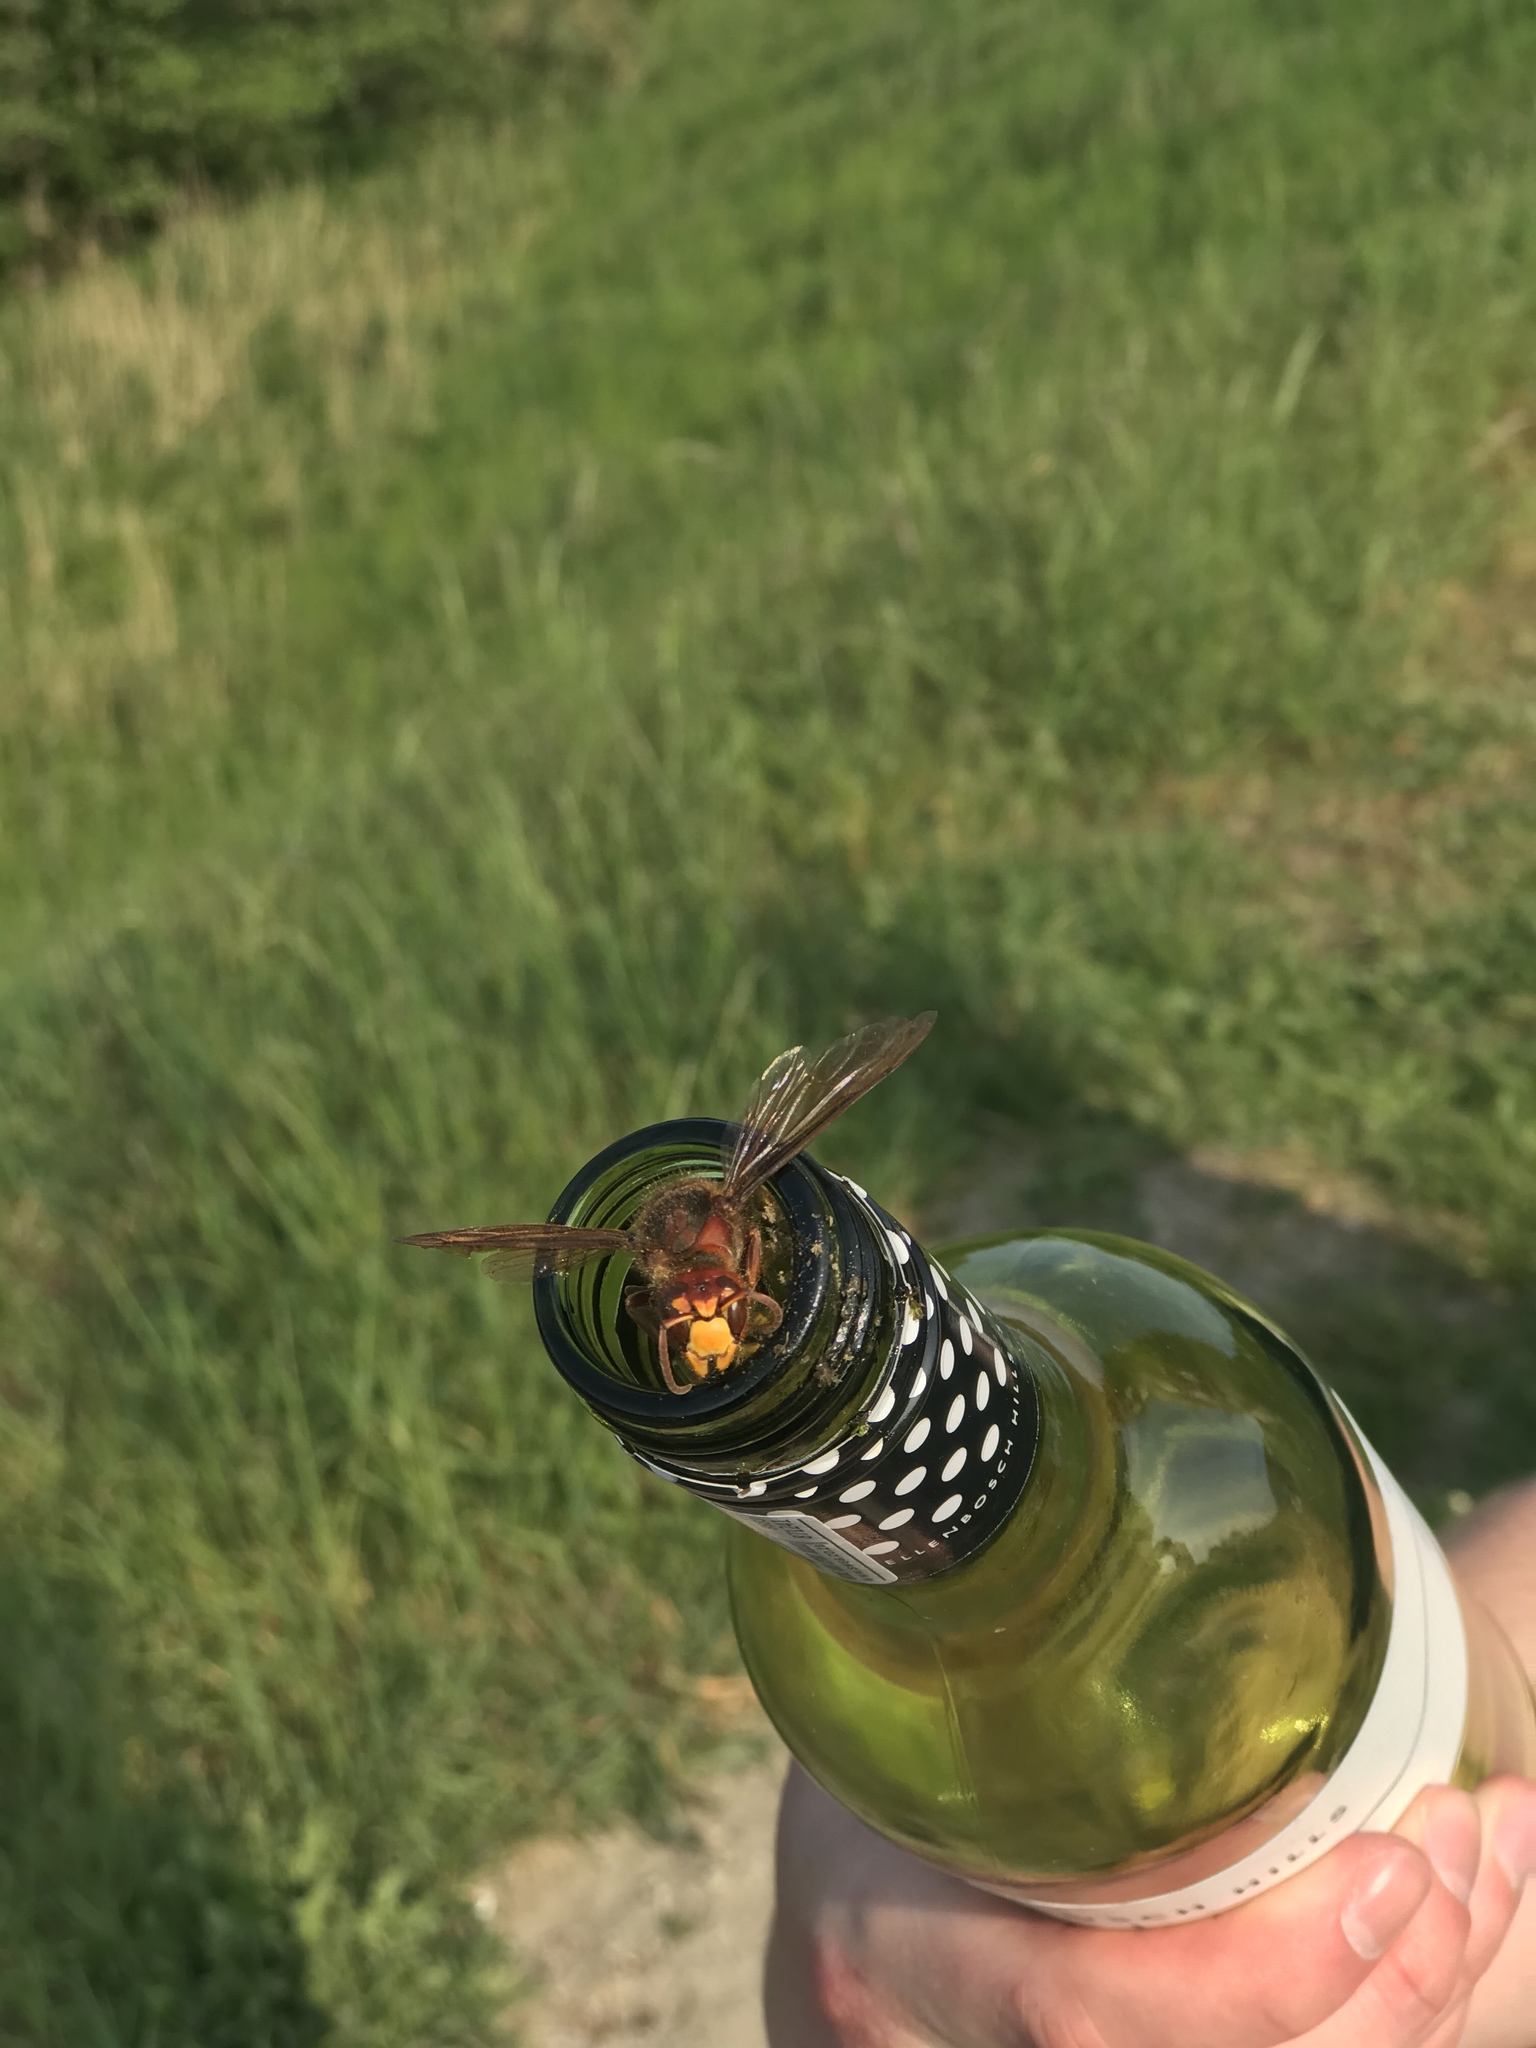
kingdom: Animalia
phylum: Arthropoda
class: Insecta
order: Hymenoptera
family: Vespidae
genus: Vespa
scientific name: Vespa crabro
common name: Hornet
